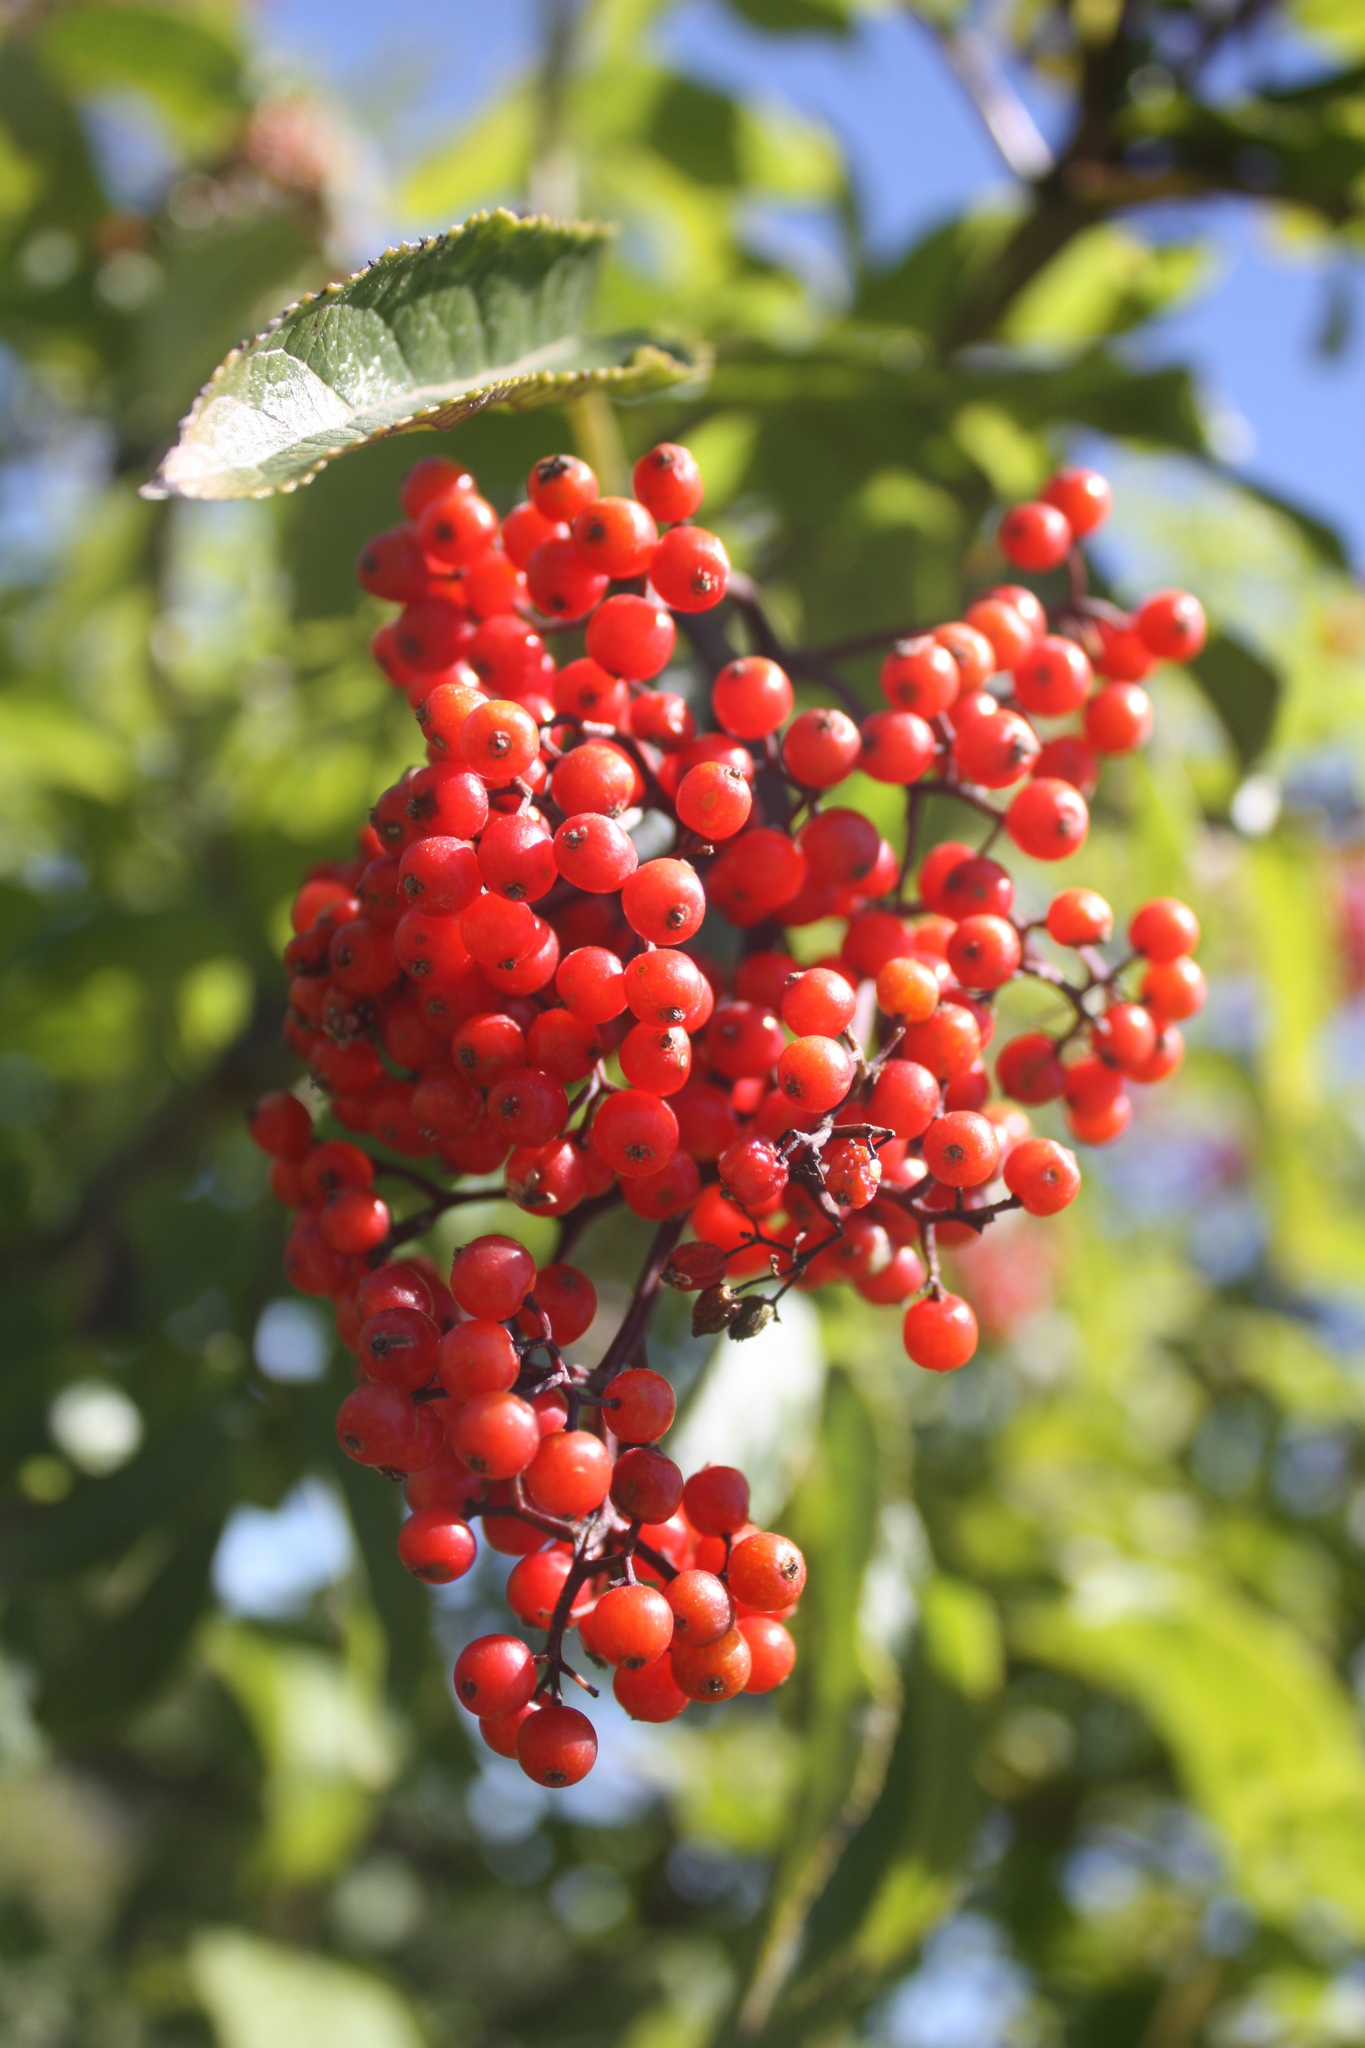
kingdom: Plantae
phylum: Tracheophyta
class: Magnoliopsida
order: Dipsacales
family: Viburnaceae
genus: Sambucus
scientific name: Sambucus racemosa
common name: Red-berried elder
